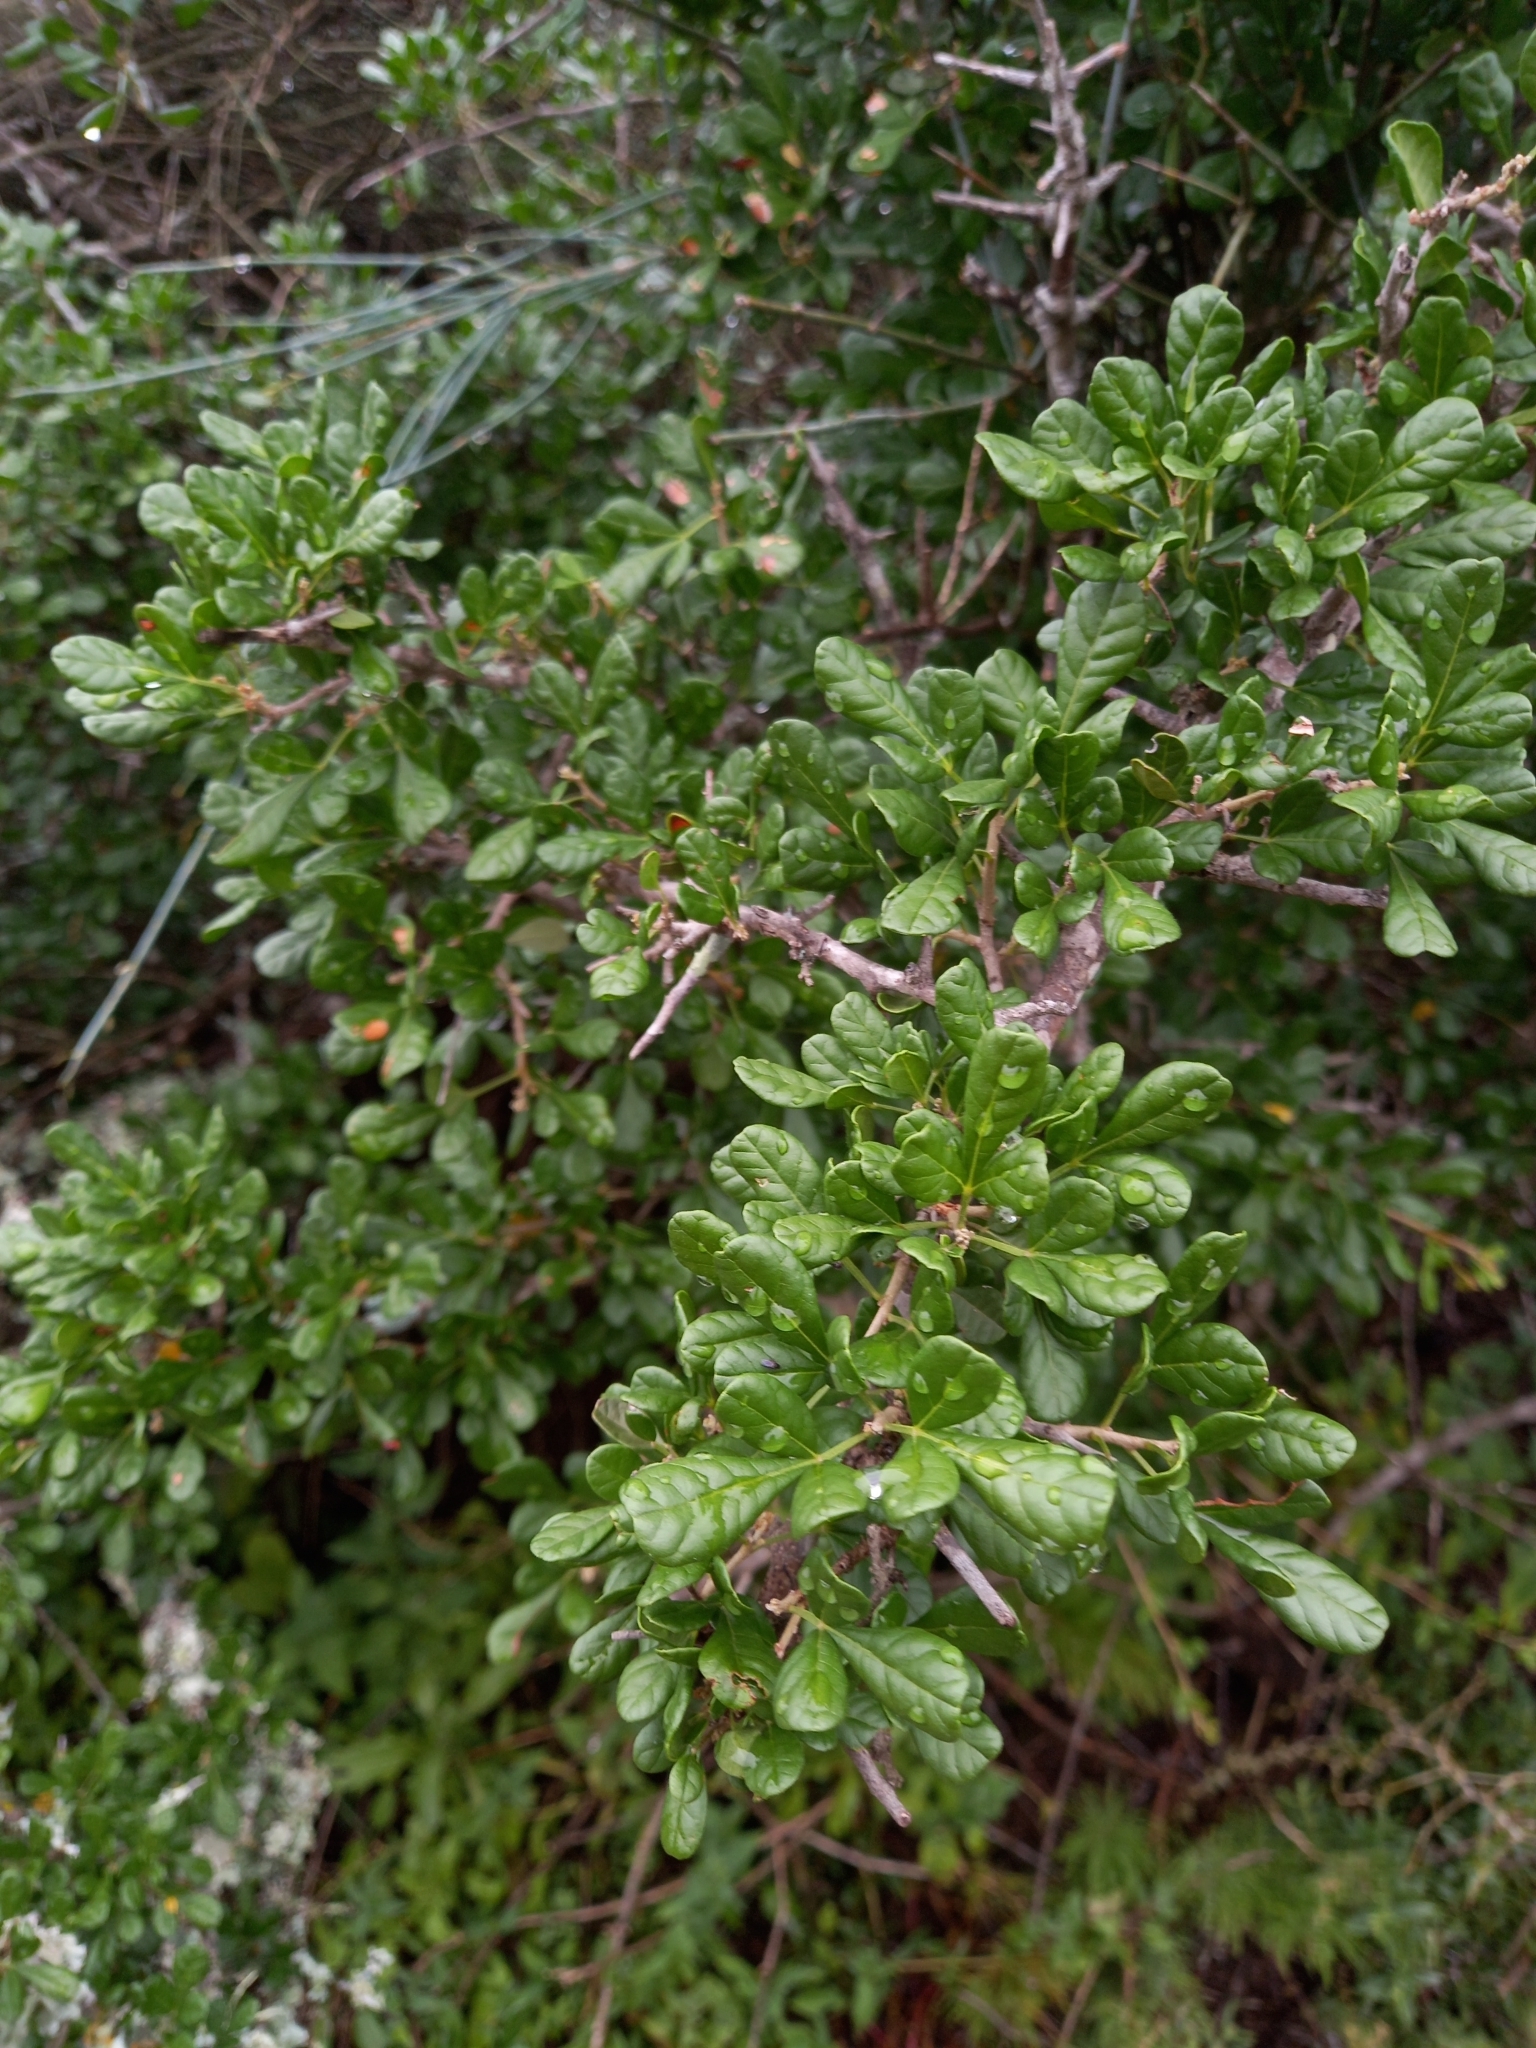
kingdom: Plantae
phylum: Tracheophyta
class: Magnoliopsida
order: Sapindales
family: Anacardiaceae
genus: Searsia
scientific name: Searsia refracta
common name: Thorny crow-berry
